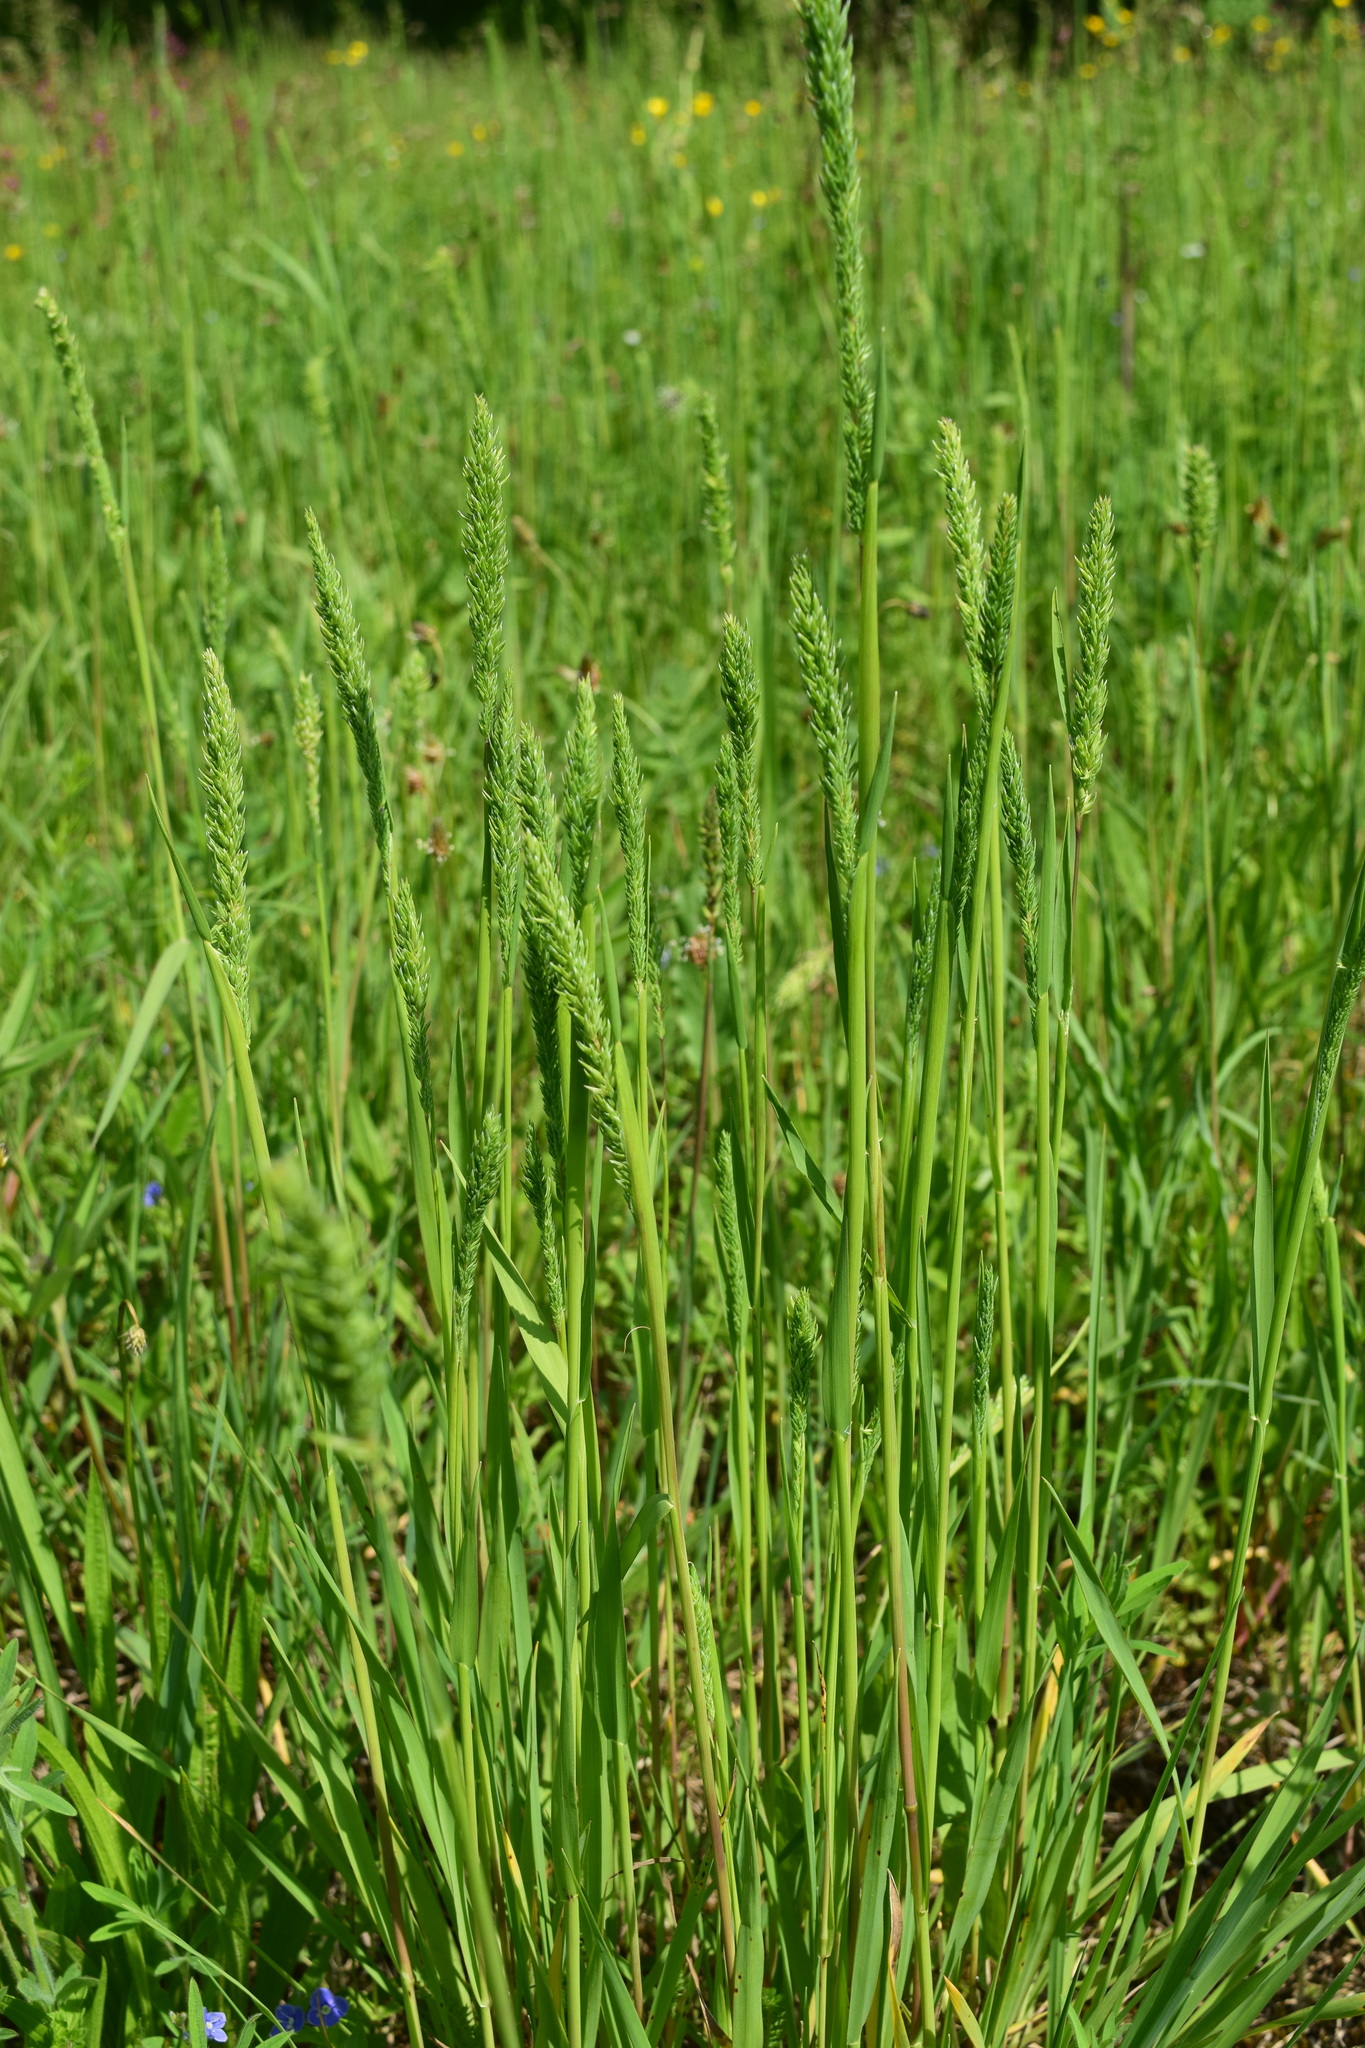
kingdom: Plantae
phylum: Tracheophyta
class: Liliopsida
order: Poales
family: Poaceae
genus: Phleum
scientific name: Phleum phleoides
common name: Purple-stem cat's-tail
